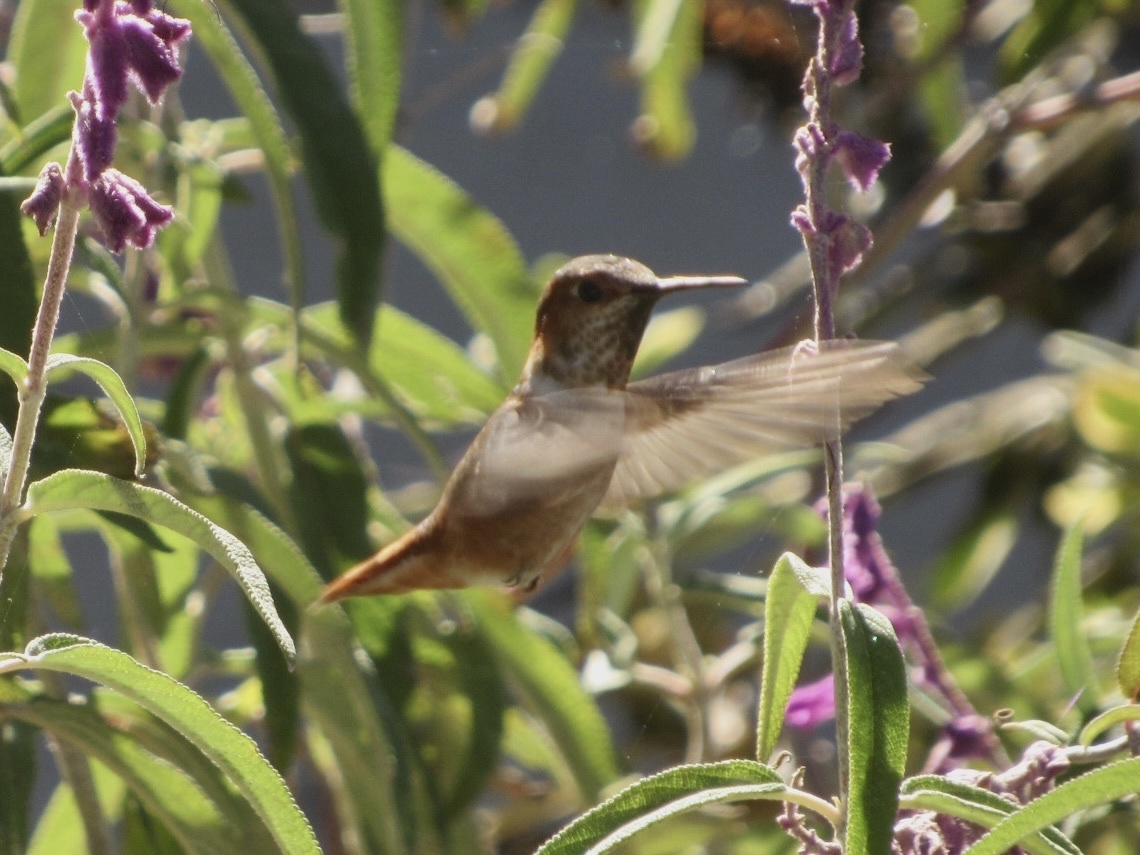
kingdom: Animalia
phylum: Chordata
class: Aves
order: Apodiformes
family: Trochilidae
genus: Selasphorus
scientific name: Selasphorus sasin
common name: Allen's hummingbird
